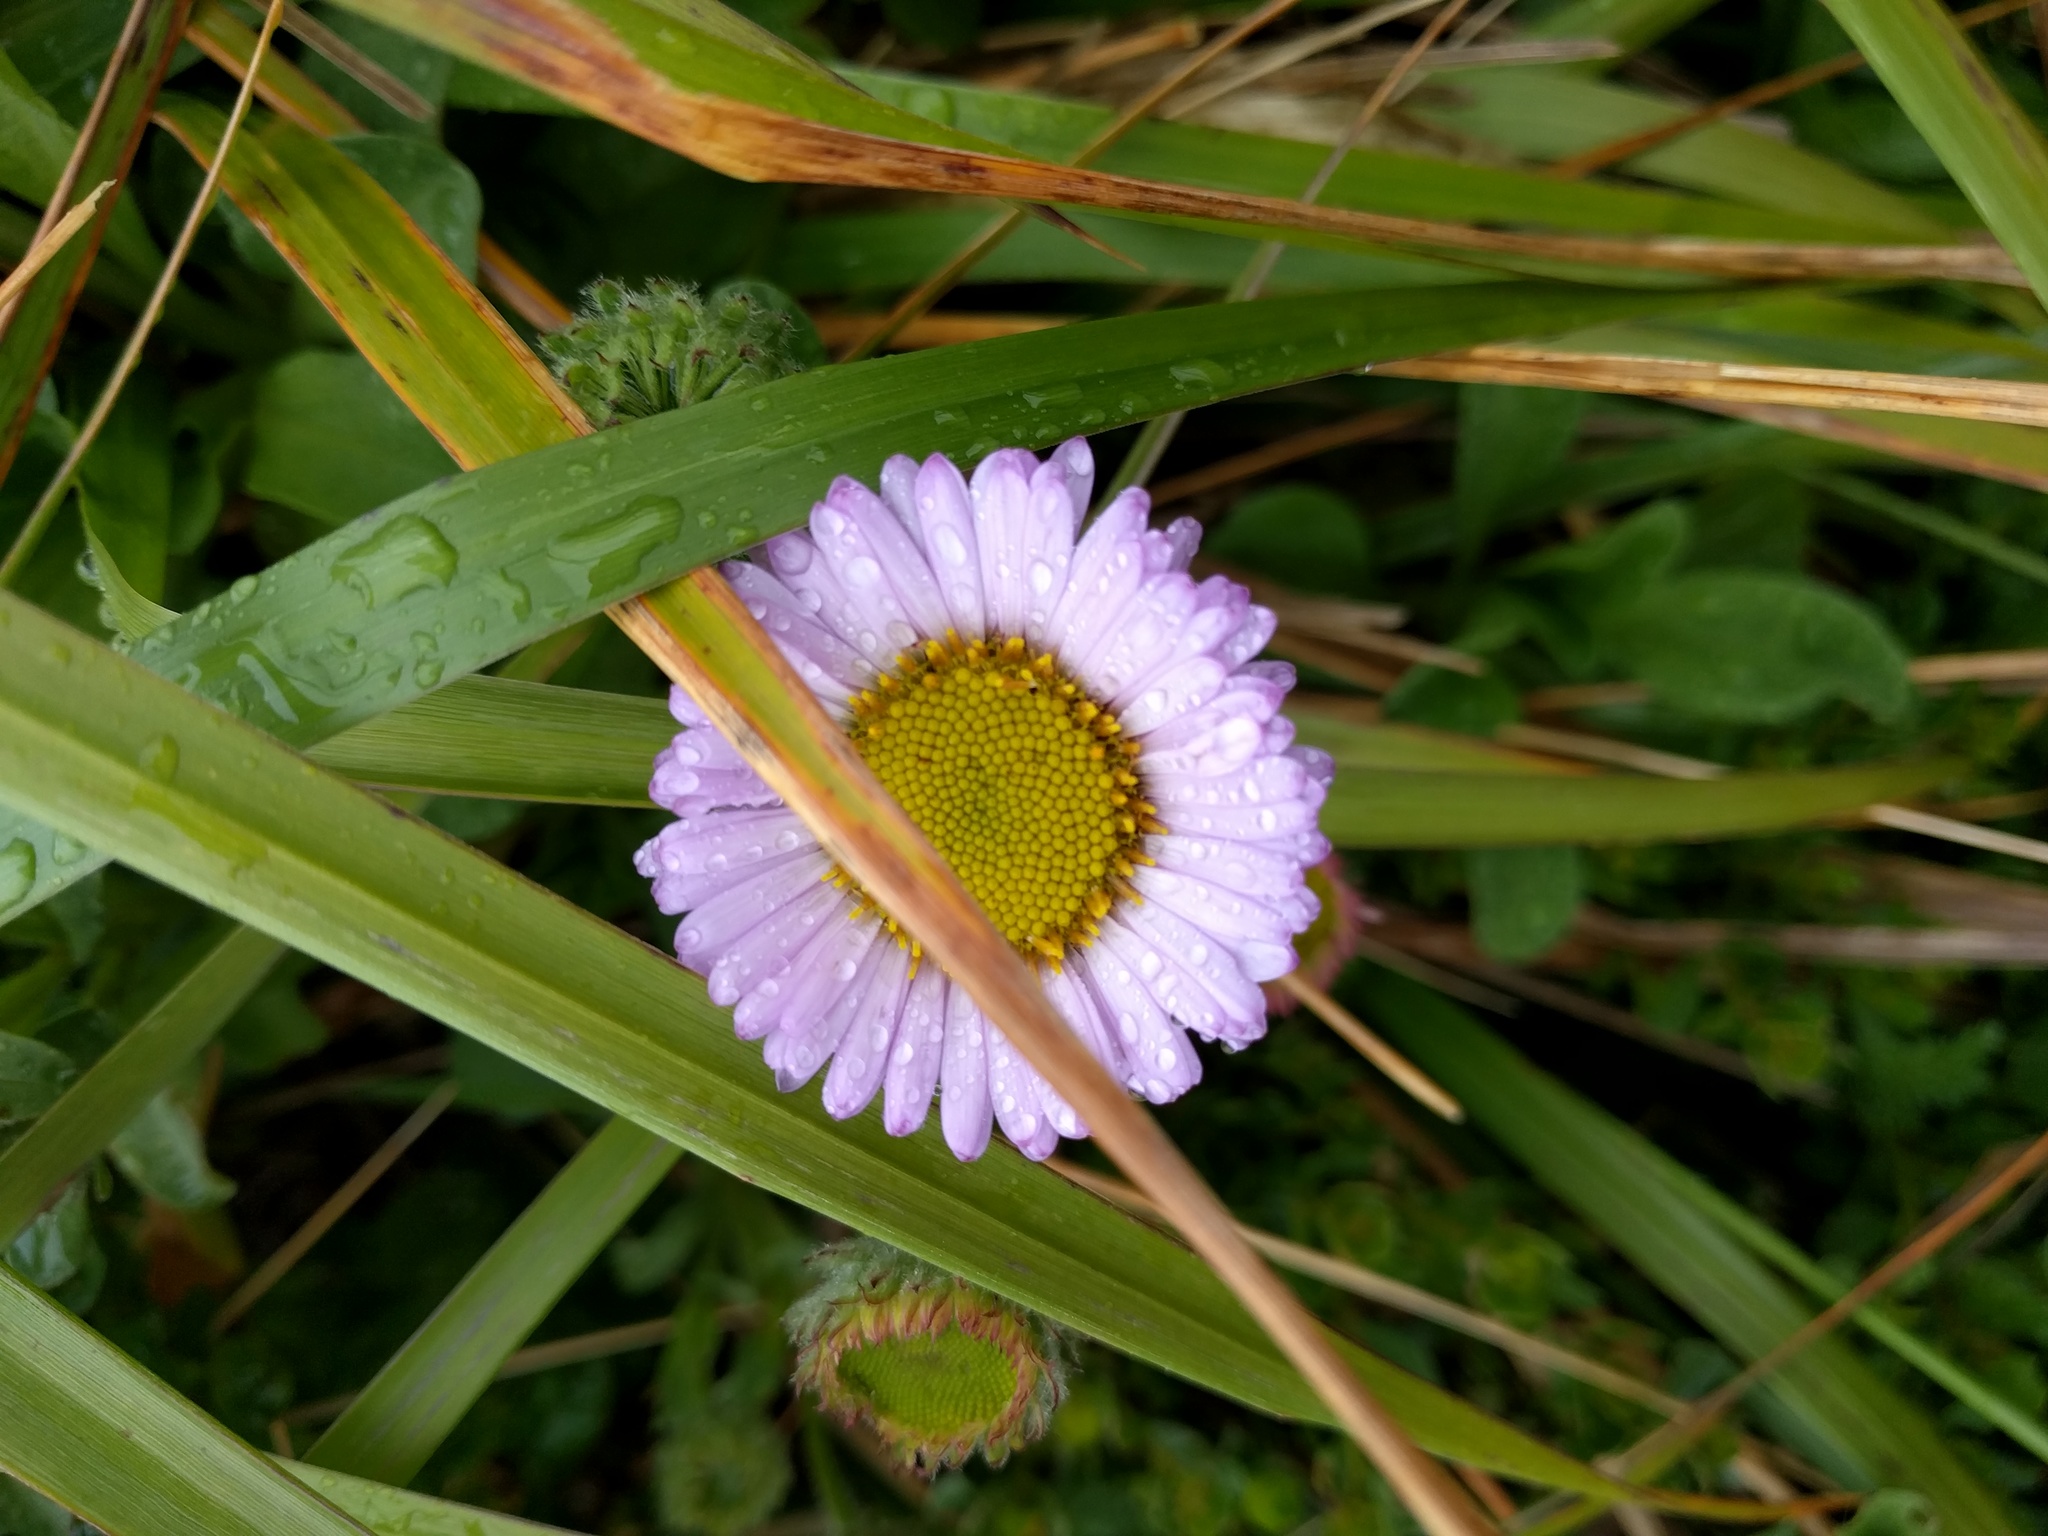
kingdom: Plantae
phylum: Tracheophyta
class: Magnoliopsida
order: Asterales
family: Asteraceae
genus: Erigeron
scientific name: Erigeron glaucus
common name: Seaside daisy
